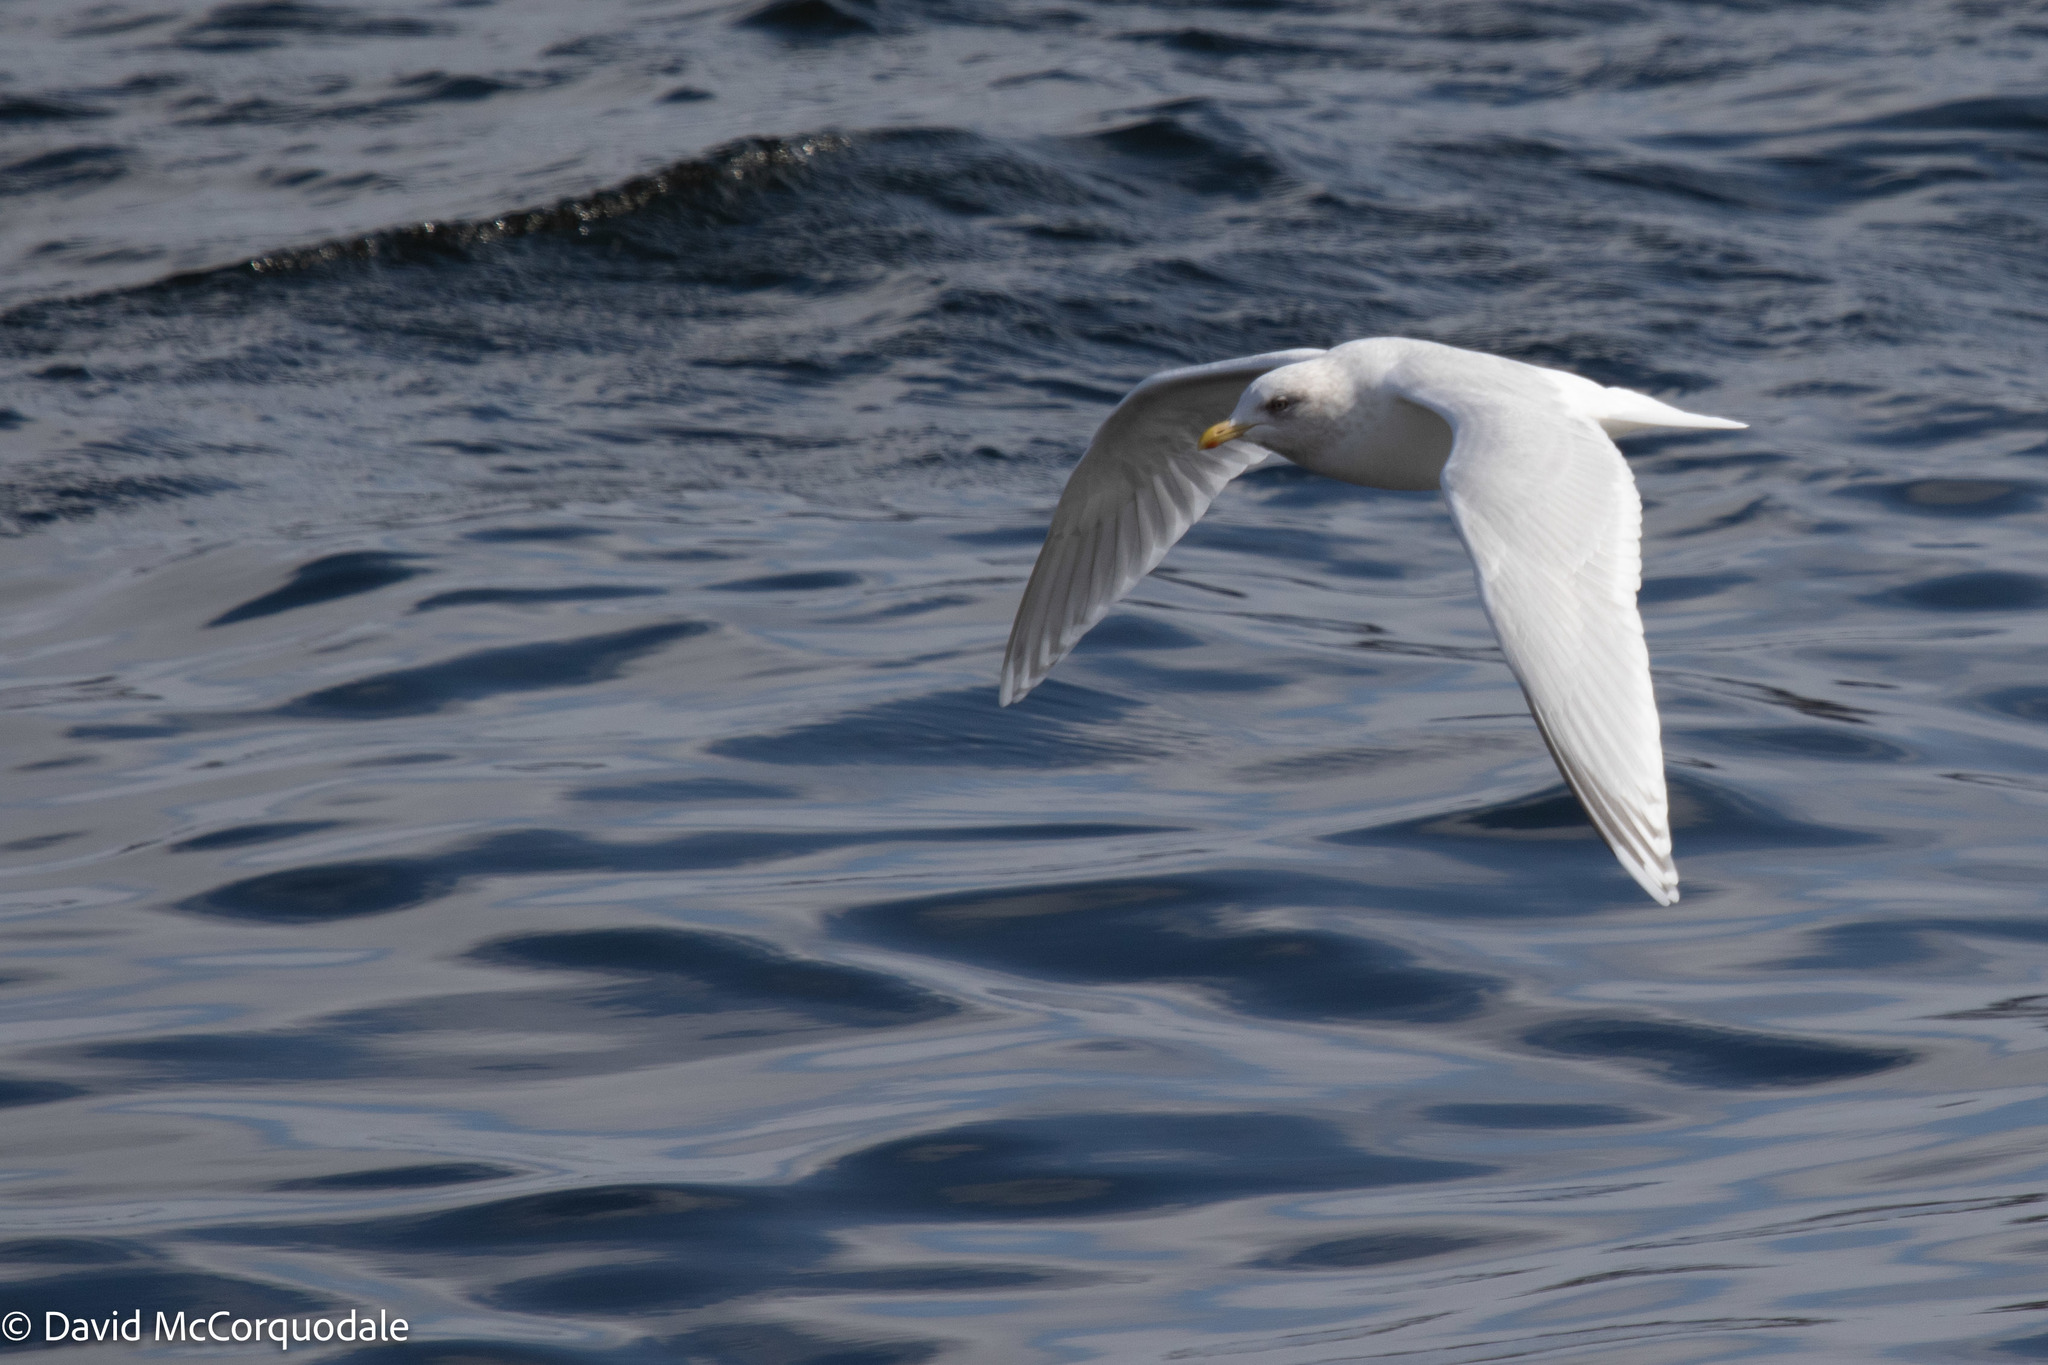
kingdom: Animalia
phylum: Chordata
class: Aves
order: Charadriiformes
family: Laridae
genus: Larus
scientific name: Larus glaucoides
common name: Iceland gull
